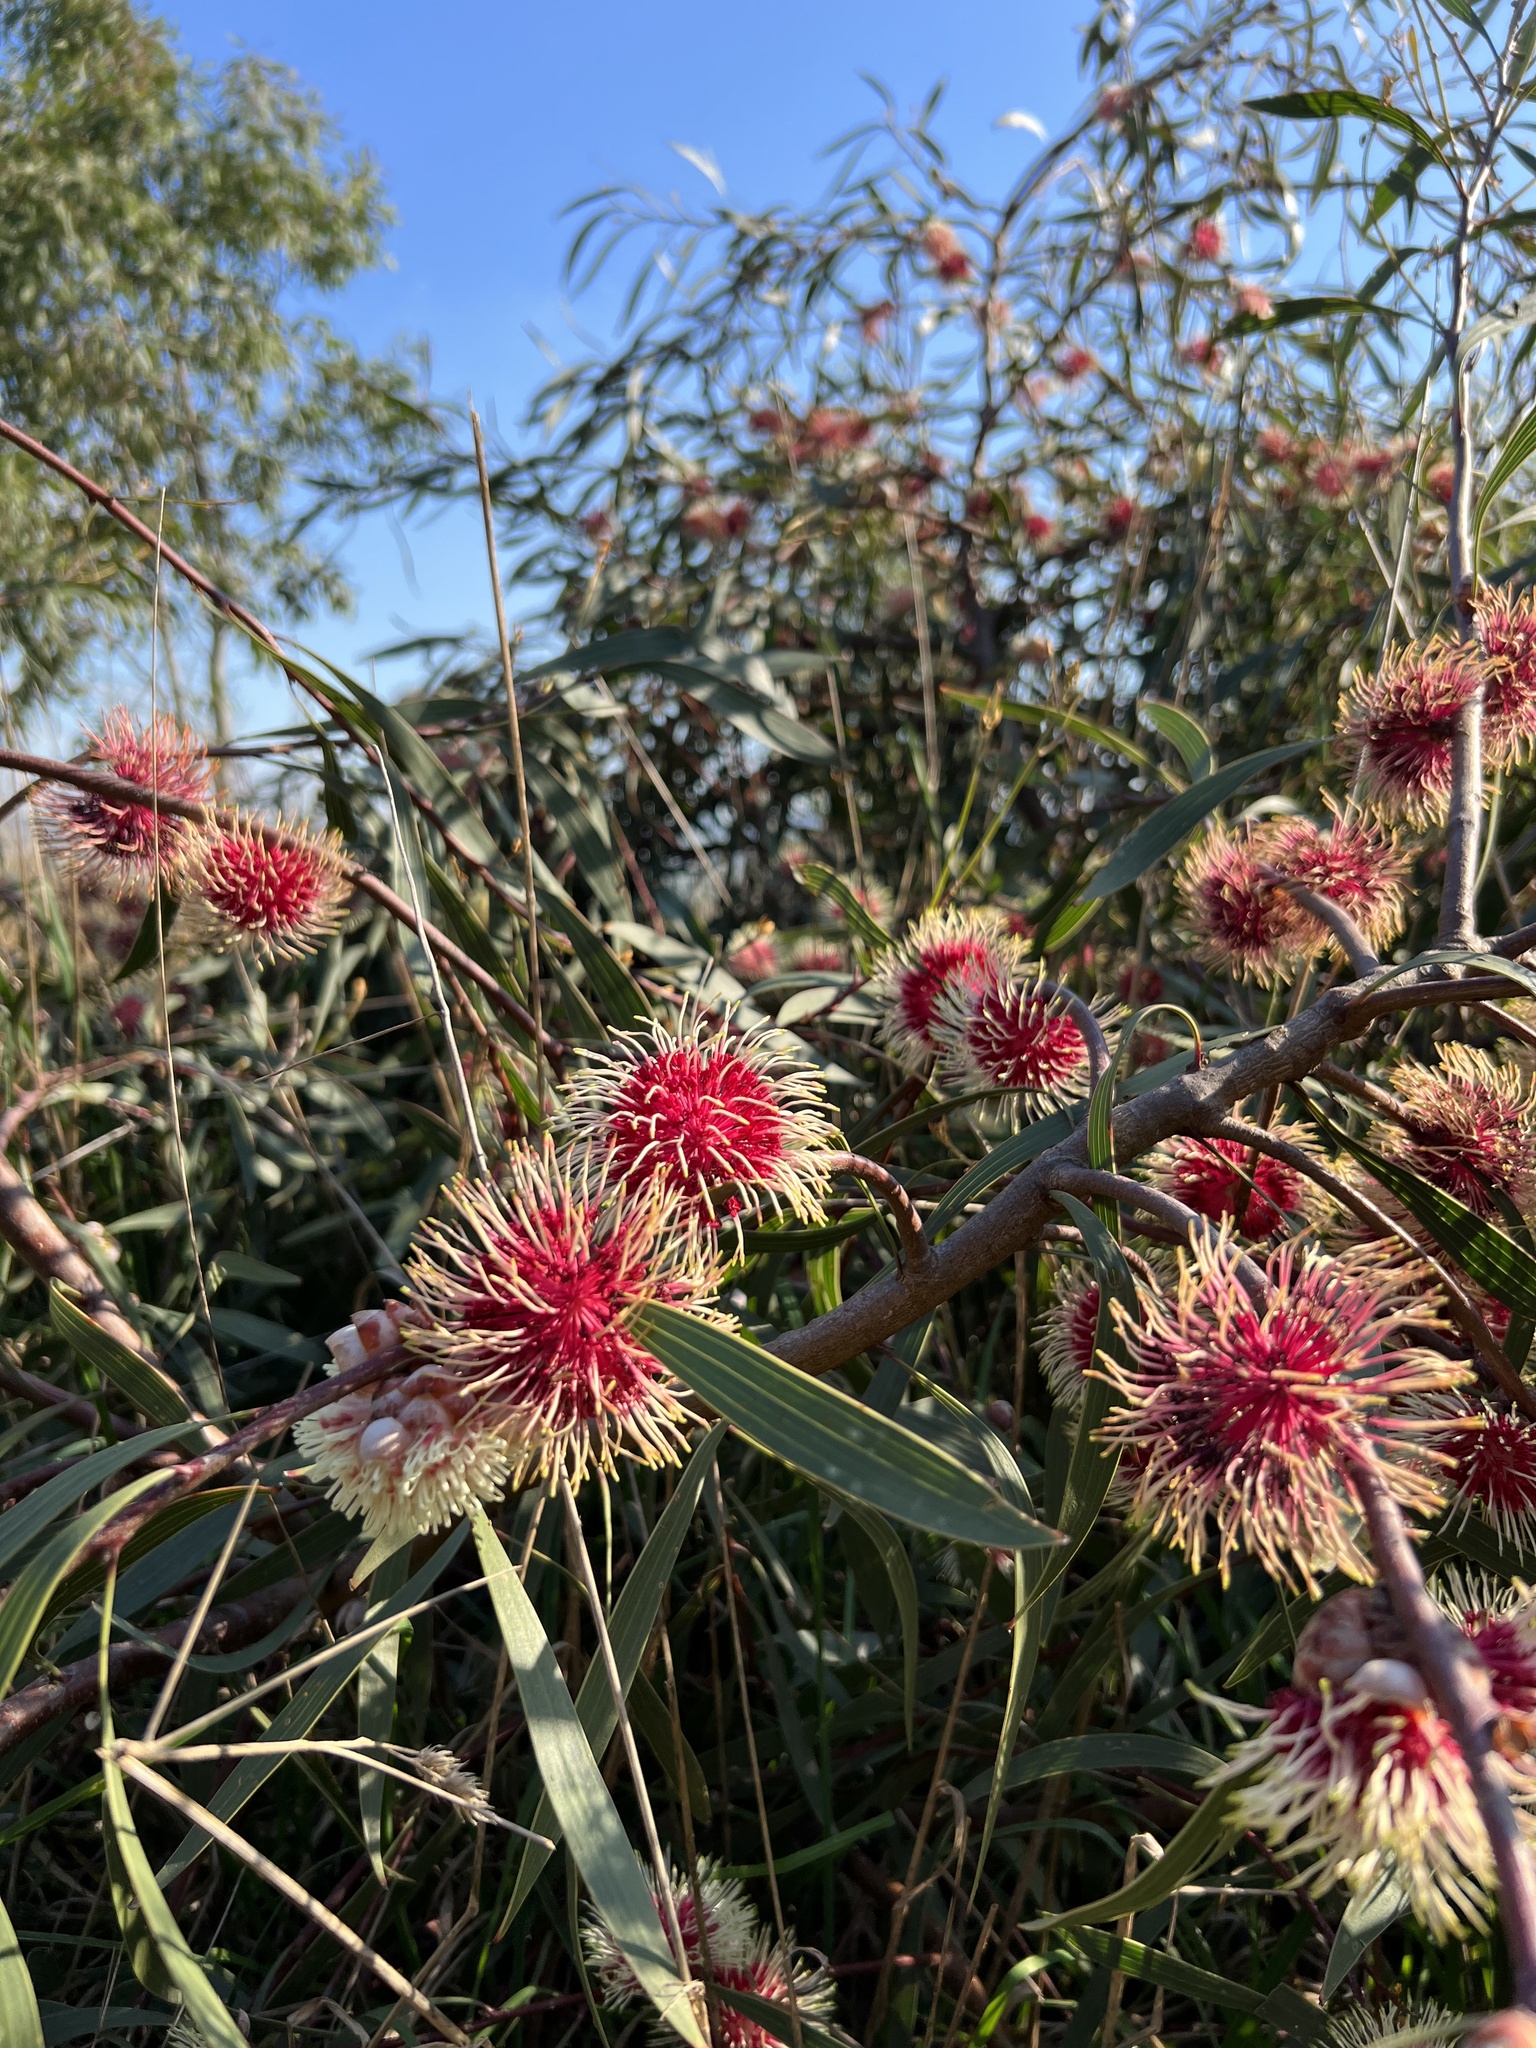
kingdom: Plantae
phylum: Tracheophyta
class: Magnoliopsida
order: Proteales
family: Proteaceae
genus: Hakea
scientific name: Hakea laurina
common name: Cushion hakea
